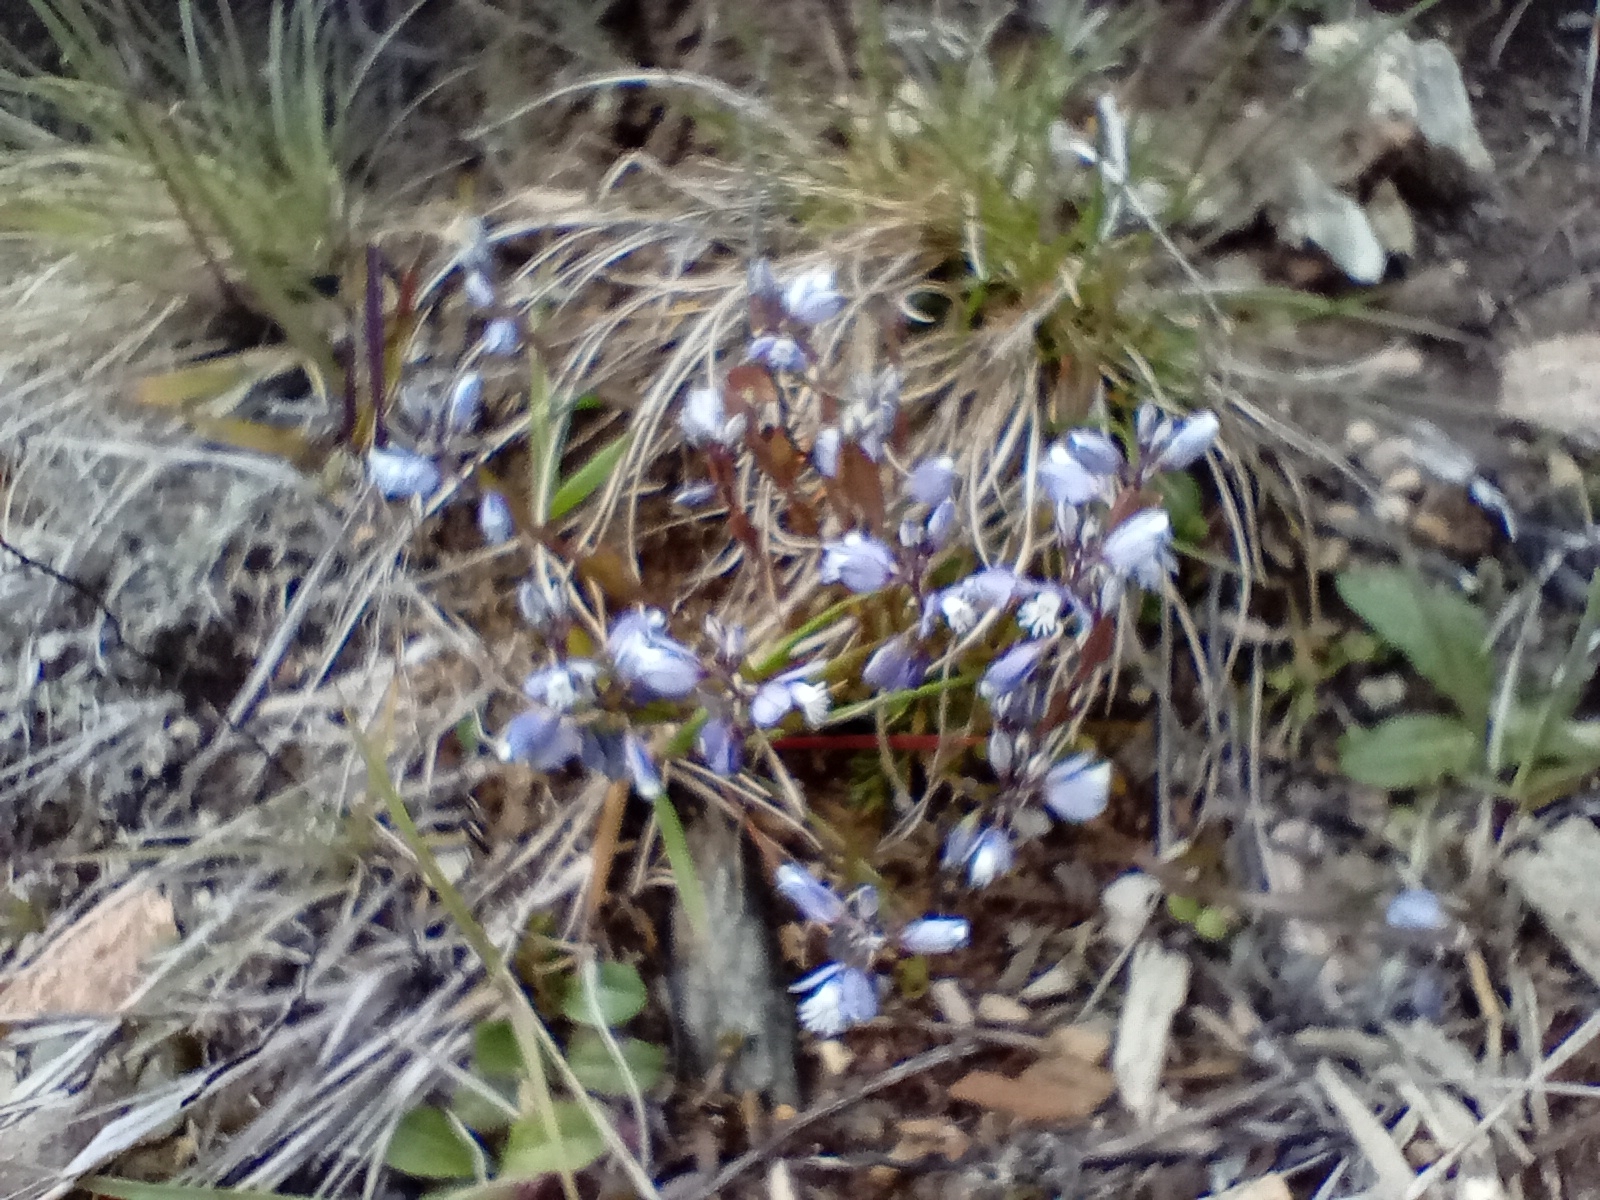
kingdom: Plantae
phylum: Tracheophyta
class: Magnoliopsida
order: Fabales
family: Polygalaceae
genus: Polygala
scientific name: Polygala serpyllifolia
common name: Heath milkwort
